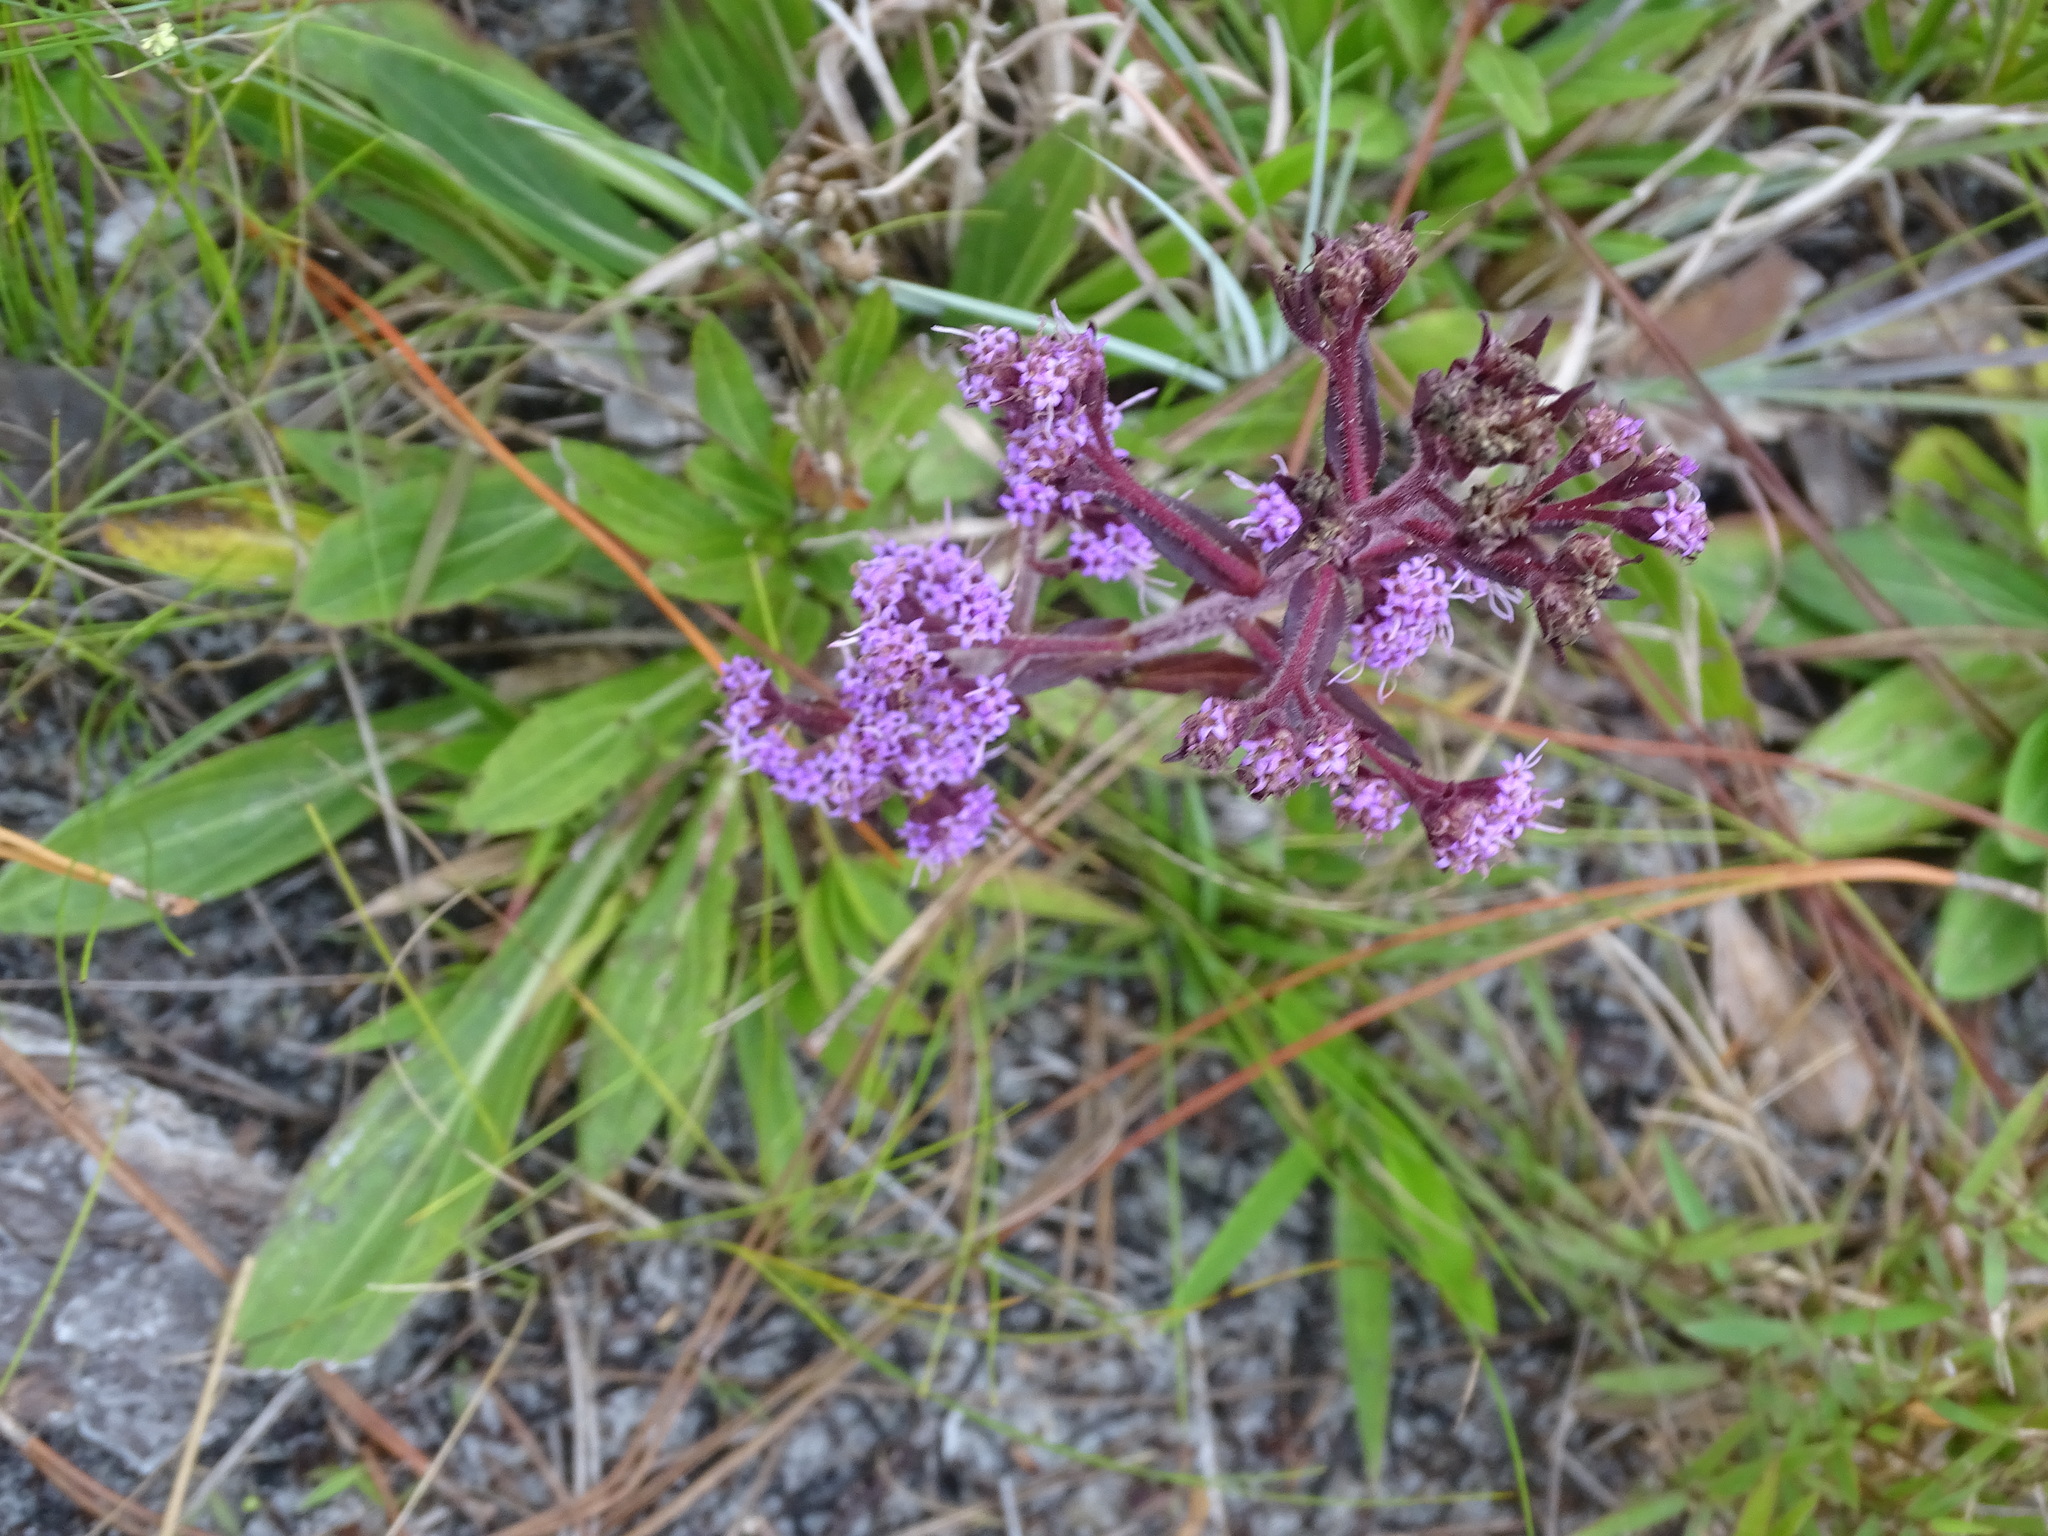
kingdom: Plantae
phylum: Tracheophyta
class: Magnoliopsida
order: Asterales
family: Asteraceae
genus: Carphephorus
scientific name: Carphephorus paniculatus
